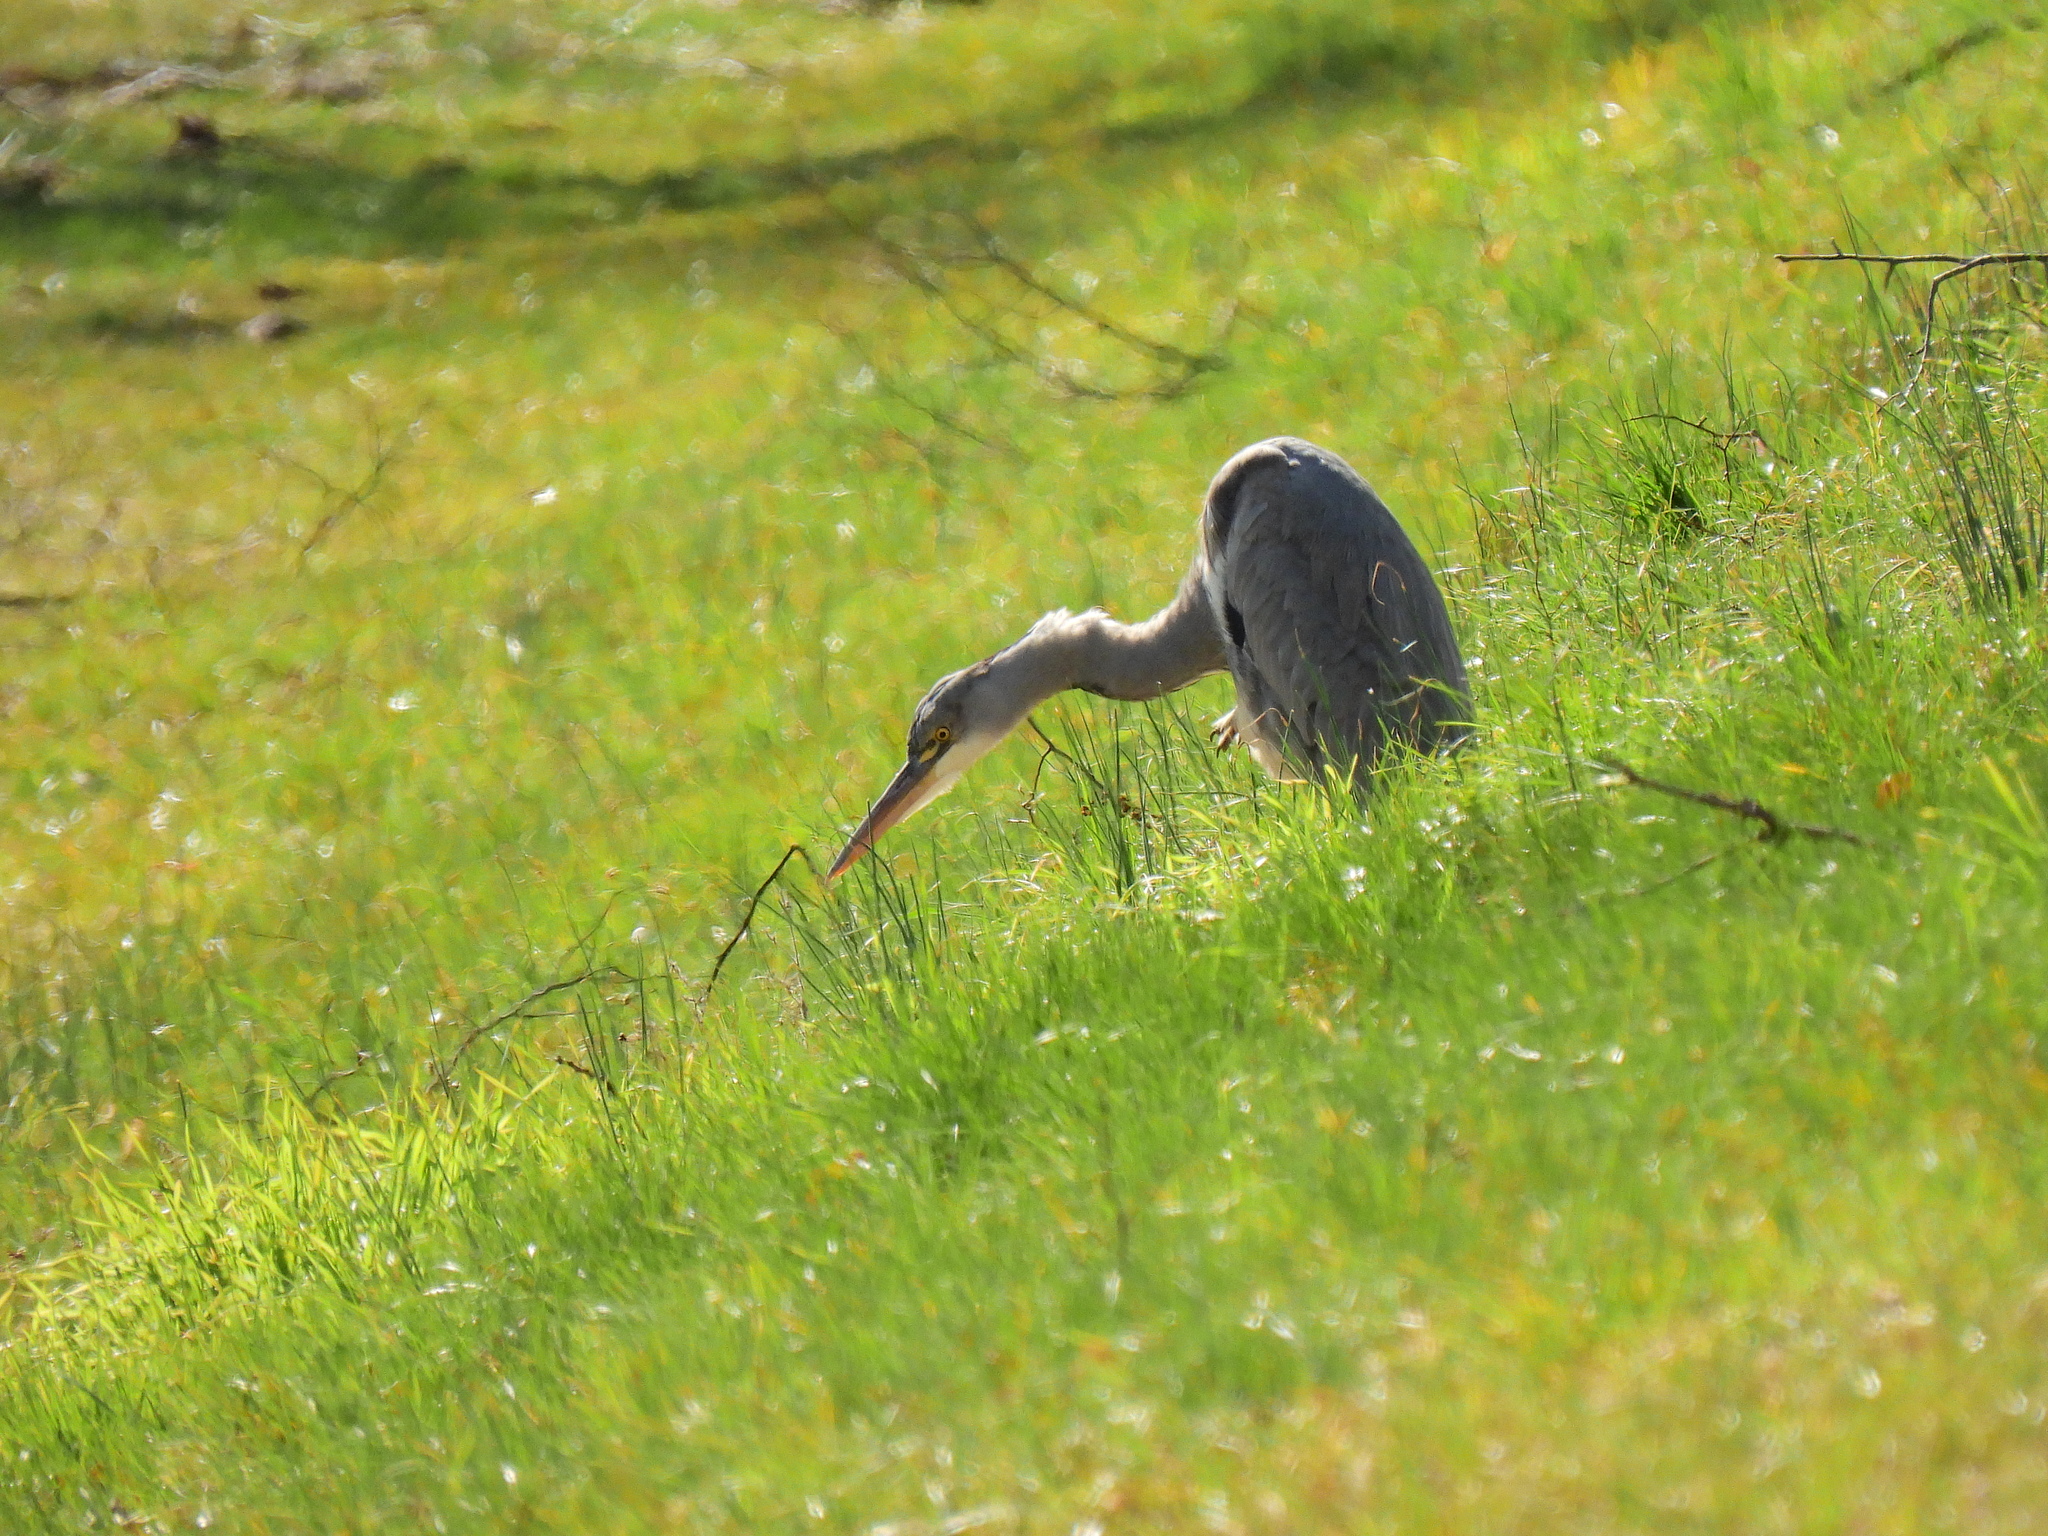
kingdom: Animalia
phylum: Chordata
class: Aves
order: Pelecaniformes
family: Ardeidae
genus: Ardea
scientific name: Ardea cinerea
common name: Grey heron
